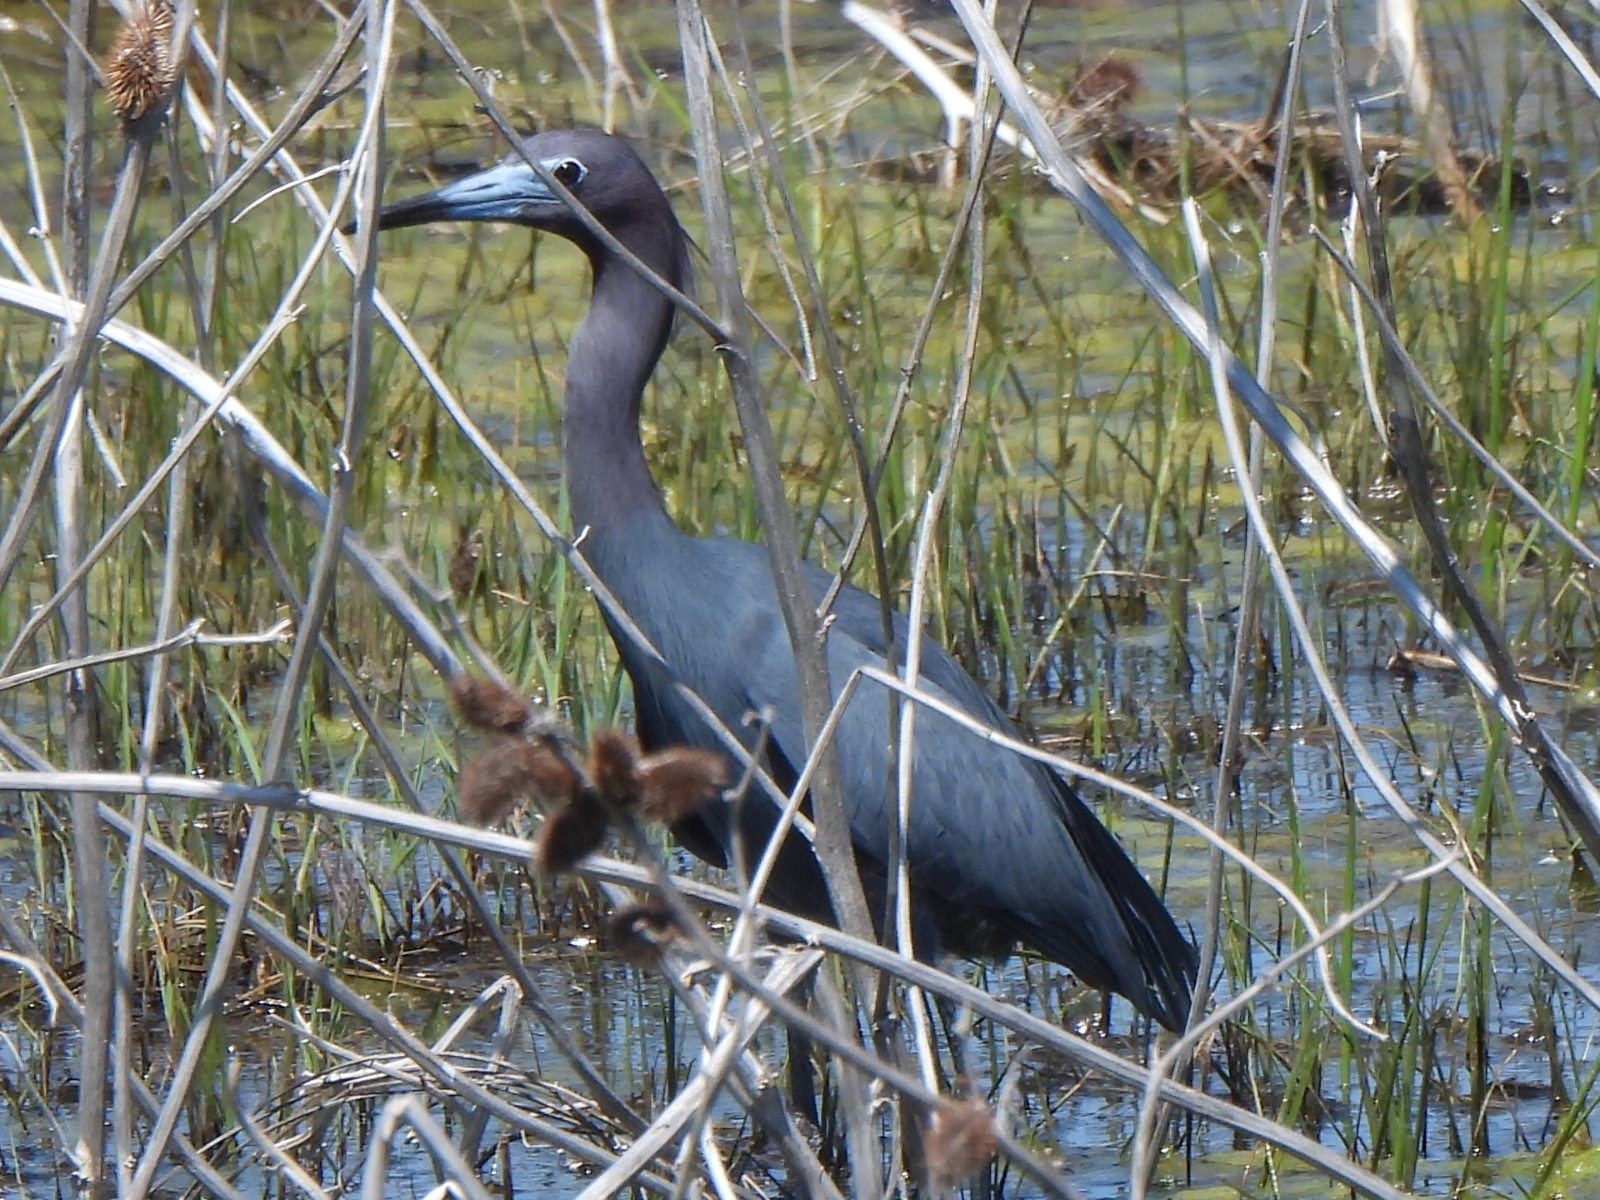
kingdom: Animalia
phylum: Chordata
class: Aves
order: Pelecaniformes
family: Ardeidae
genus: Egretta
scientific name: Egretta caerulea
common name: Little blue heron
